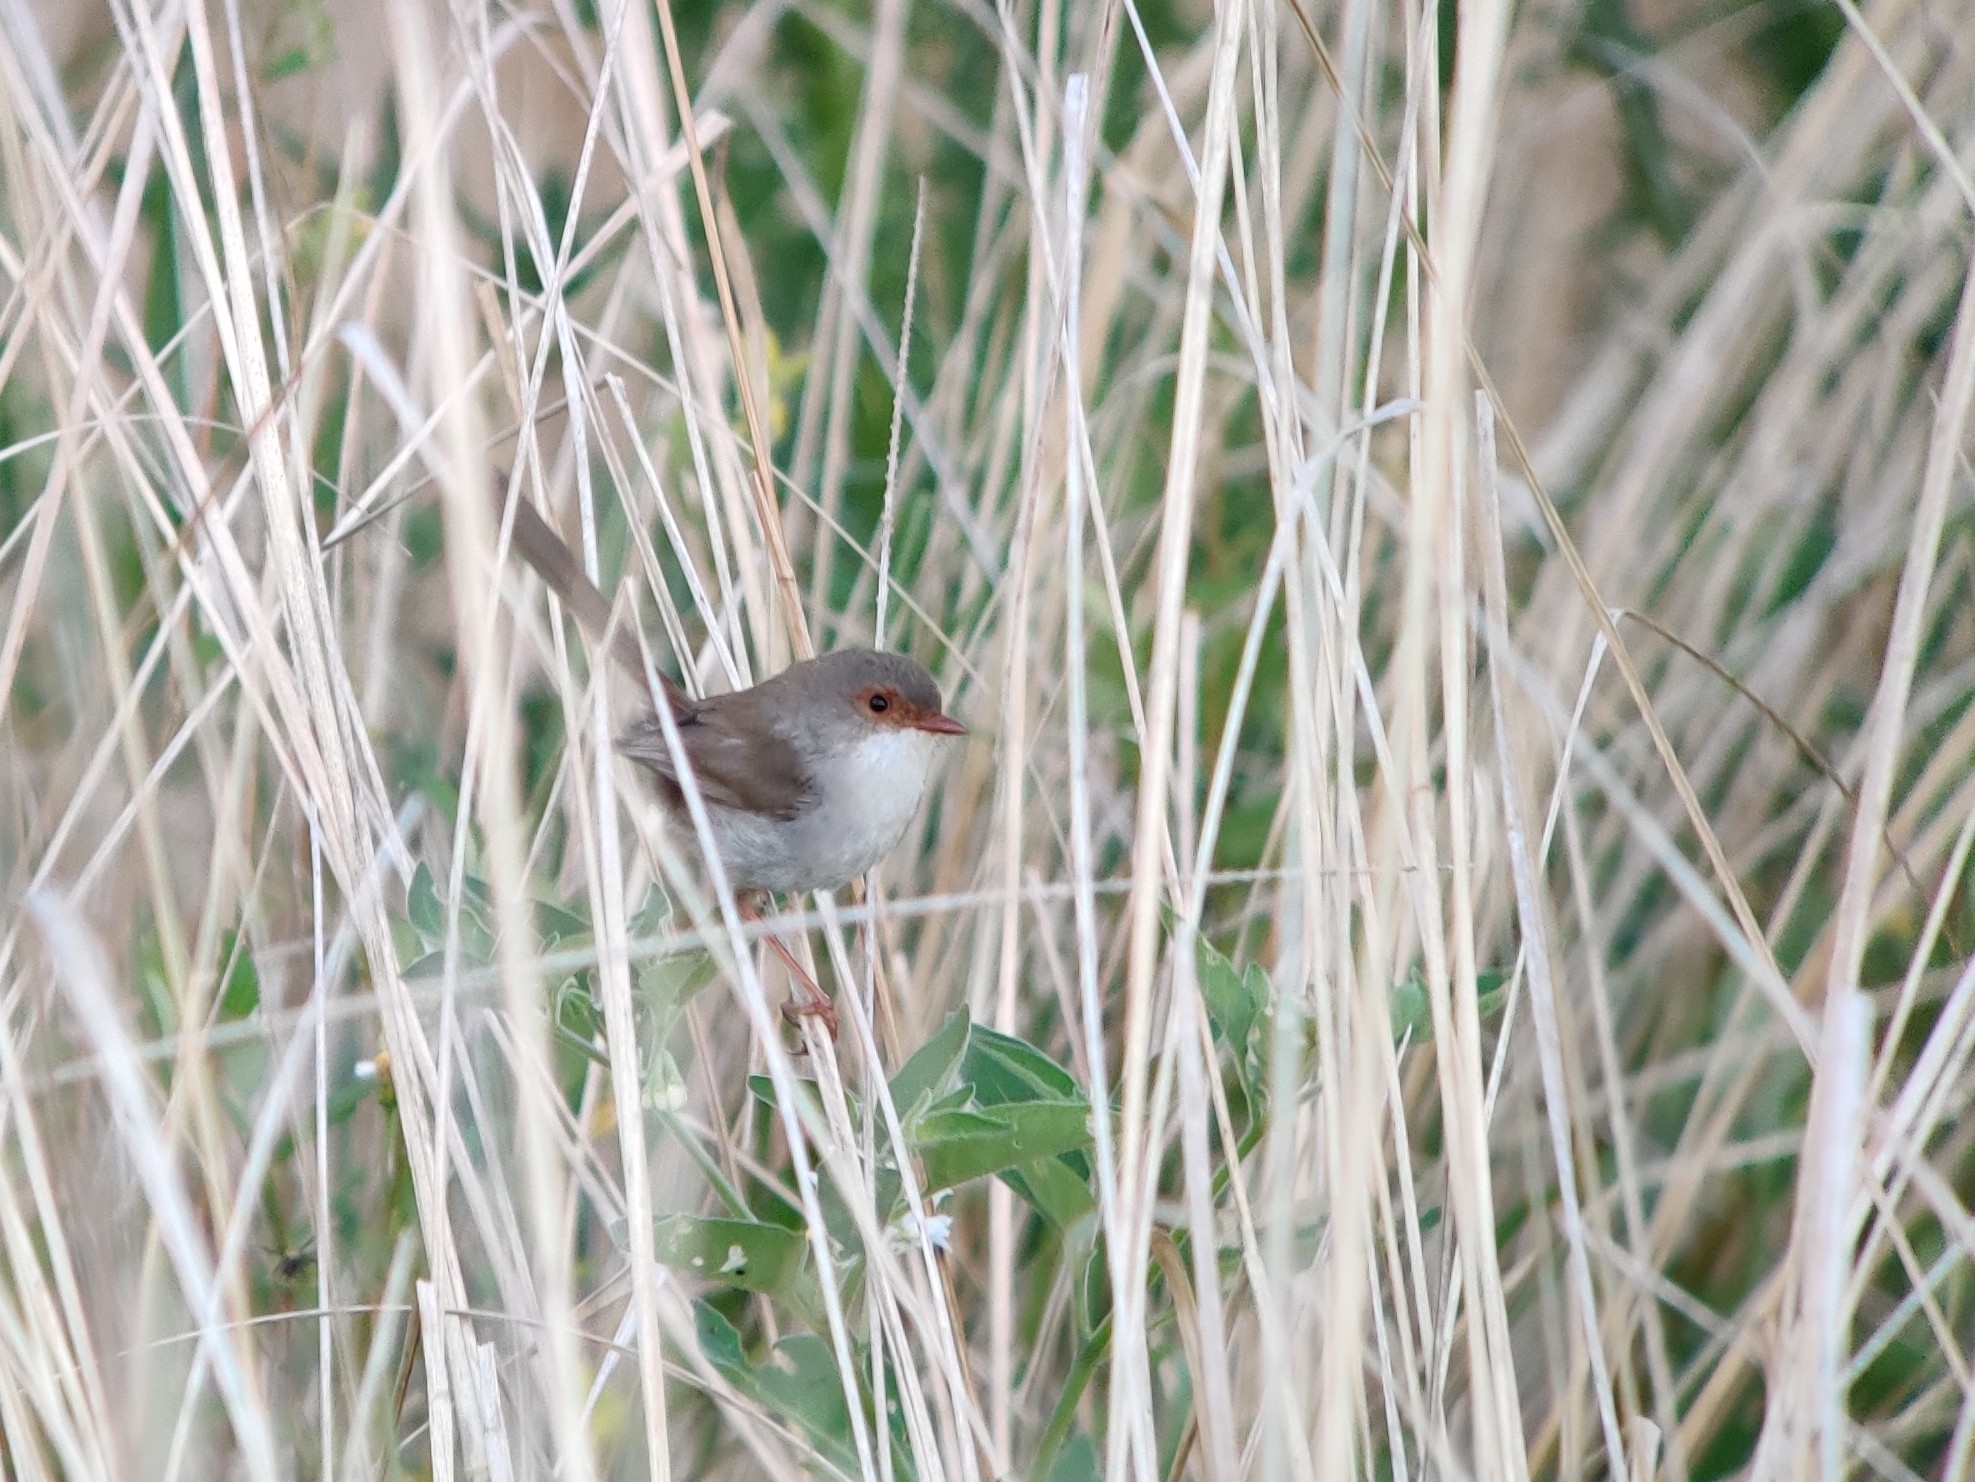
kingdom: Animalia
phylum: Chordata
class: Aves
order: Passeriformes
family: Maluridae
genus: Malurus
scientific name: Malurus cyaneus
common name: Superb fairywren
